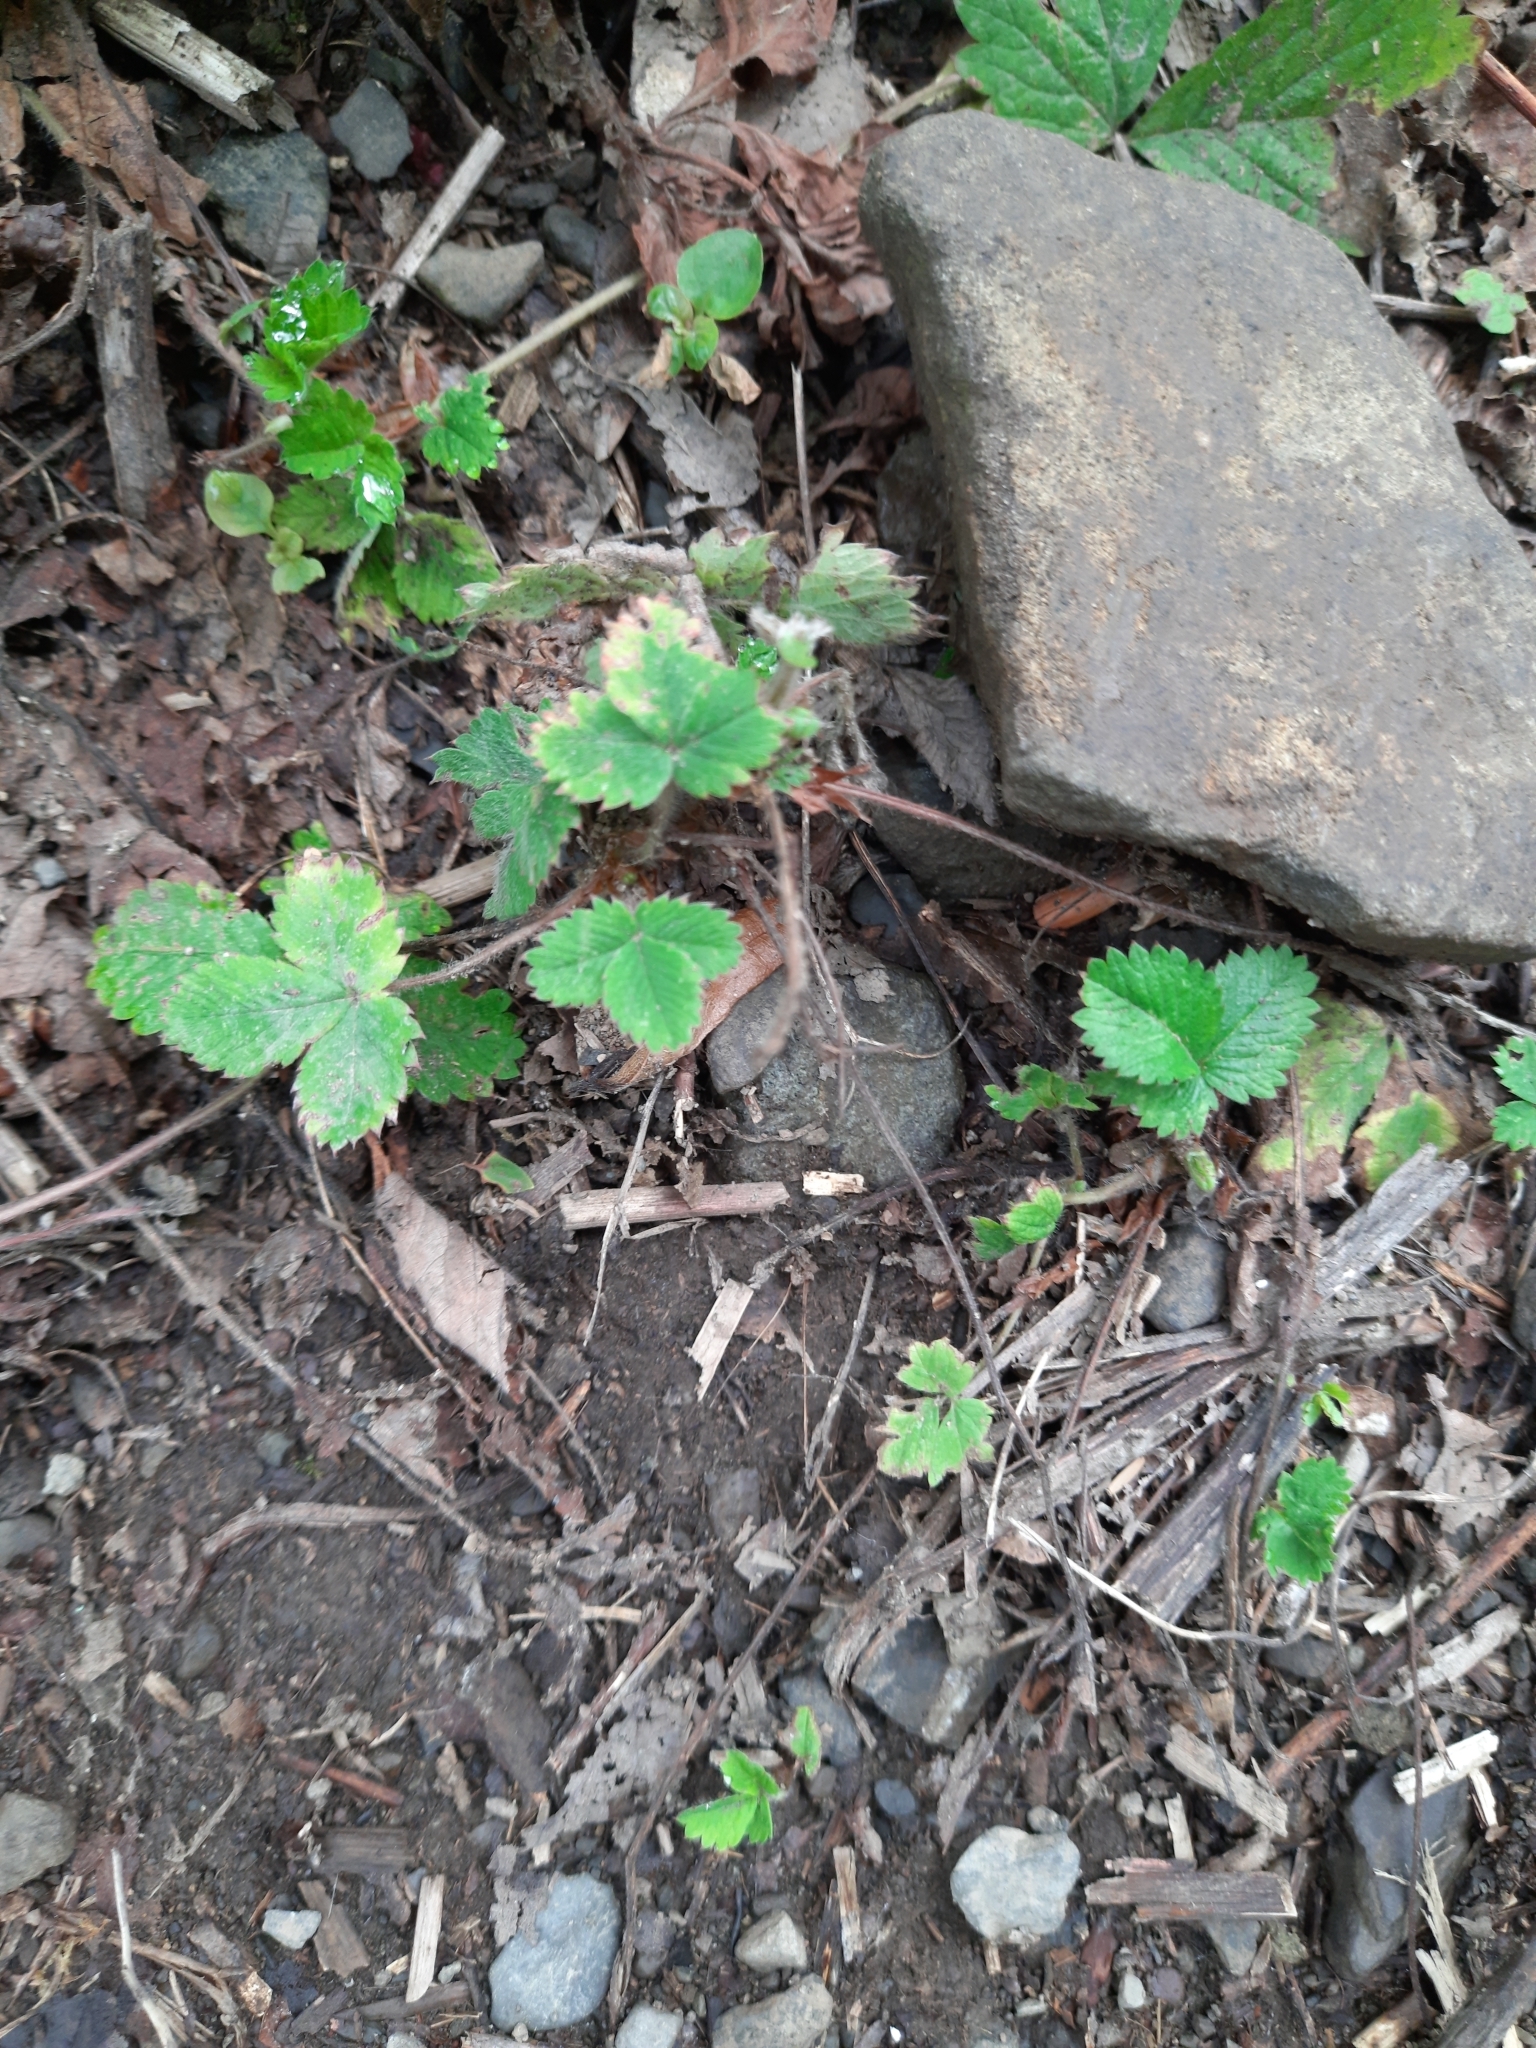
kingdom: Plantae
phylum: Tracheophyta
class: Magnoliopsida
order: Rosales
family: Rosaceae
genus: Potentilla
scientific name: Potentilla micrantha
